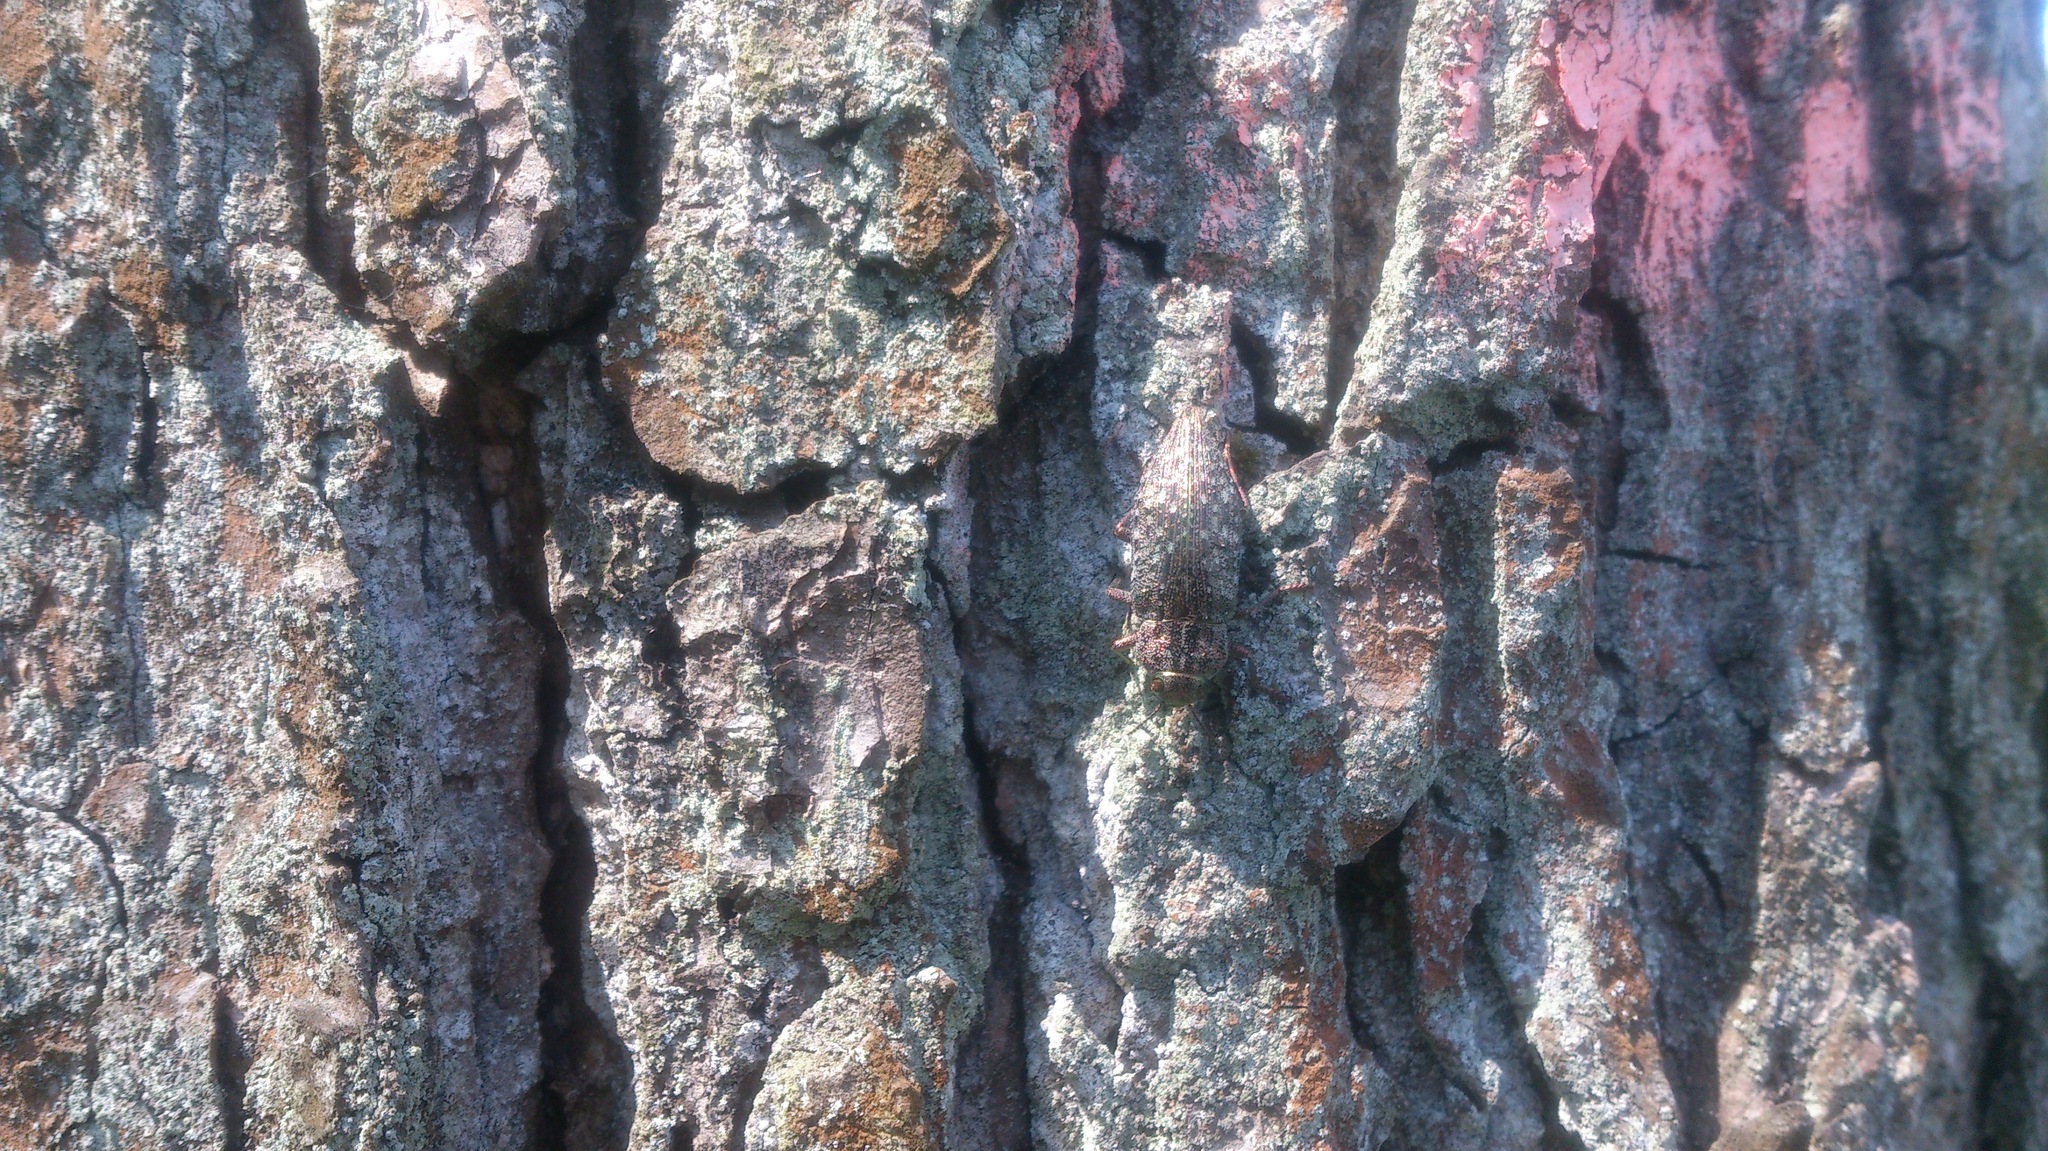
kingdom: Animalia
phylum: Arthropoda
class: Insecta
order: Coleoptera
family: Buprestidae
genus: Dicerca
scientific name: Dicerca alni
